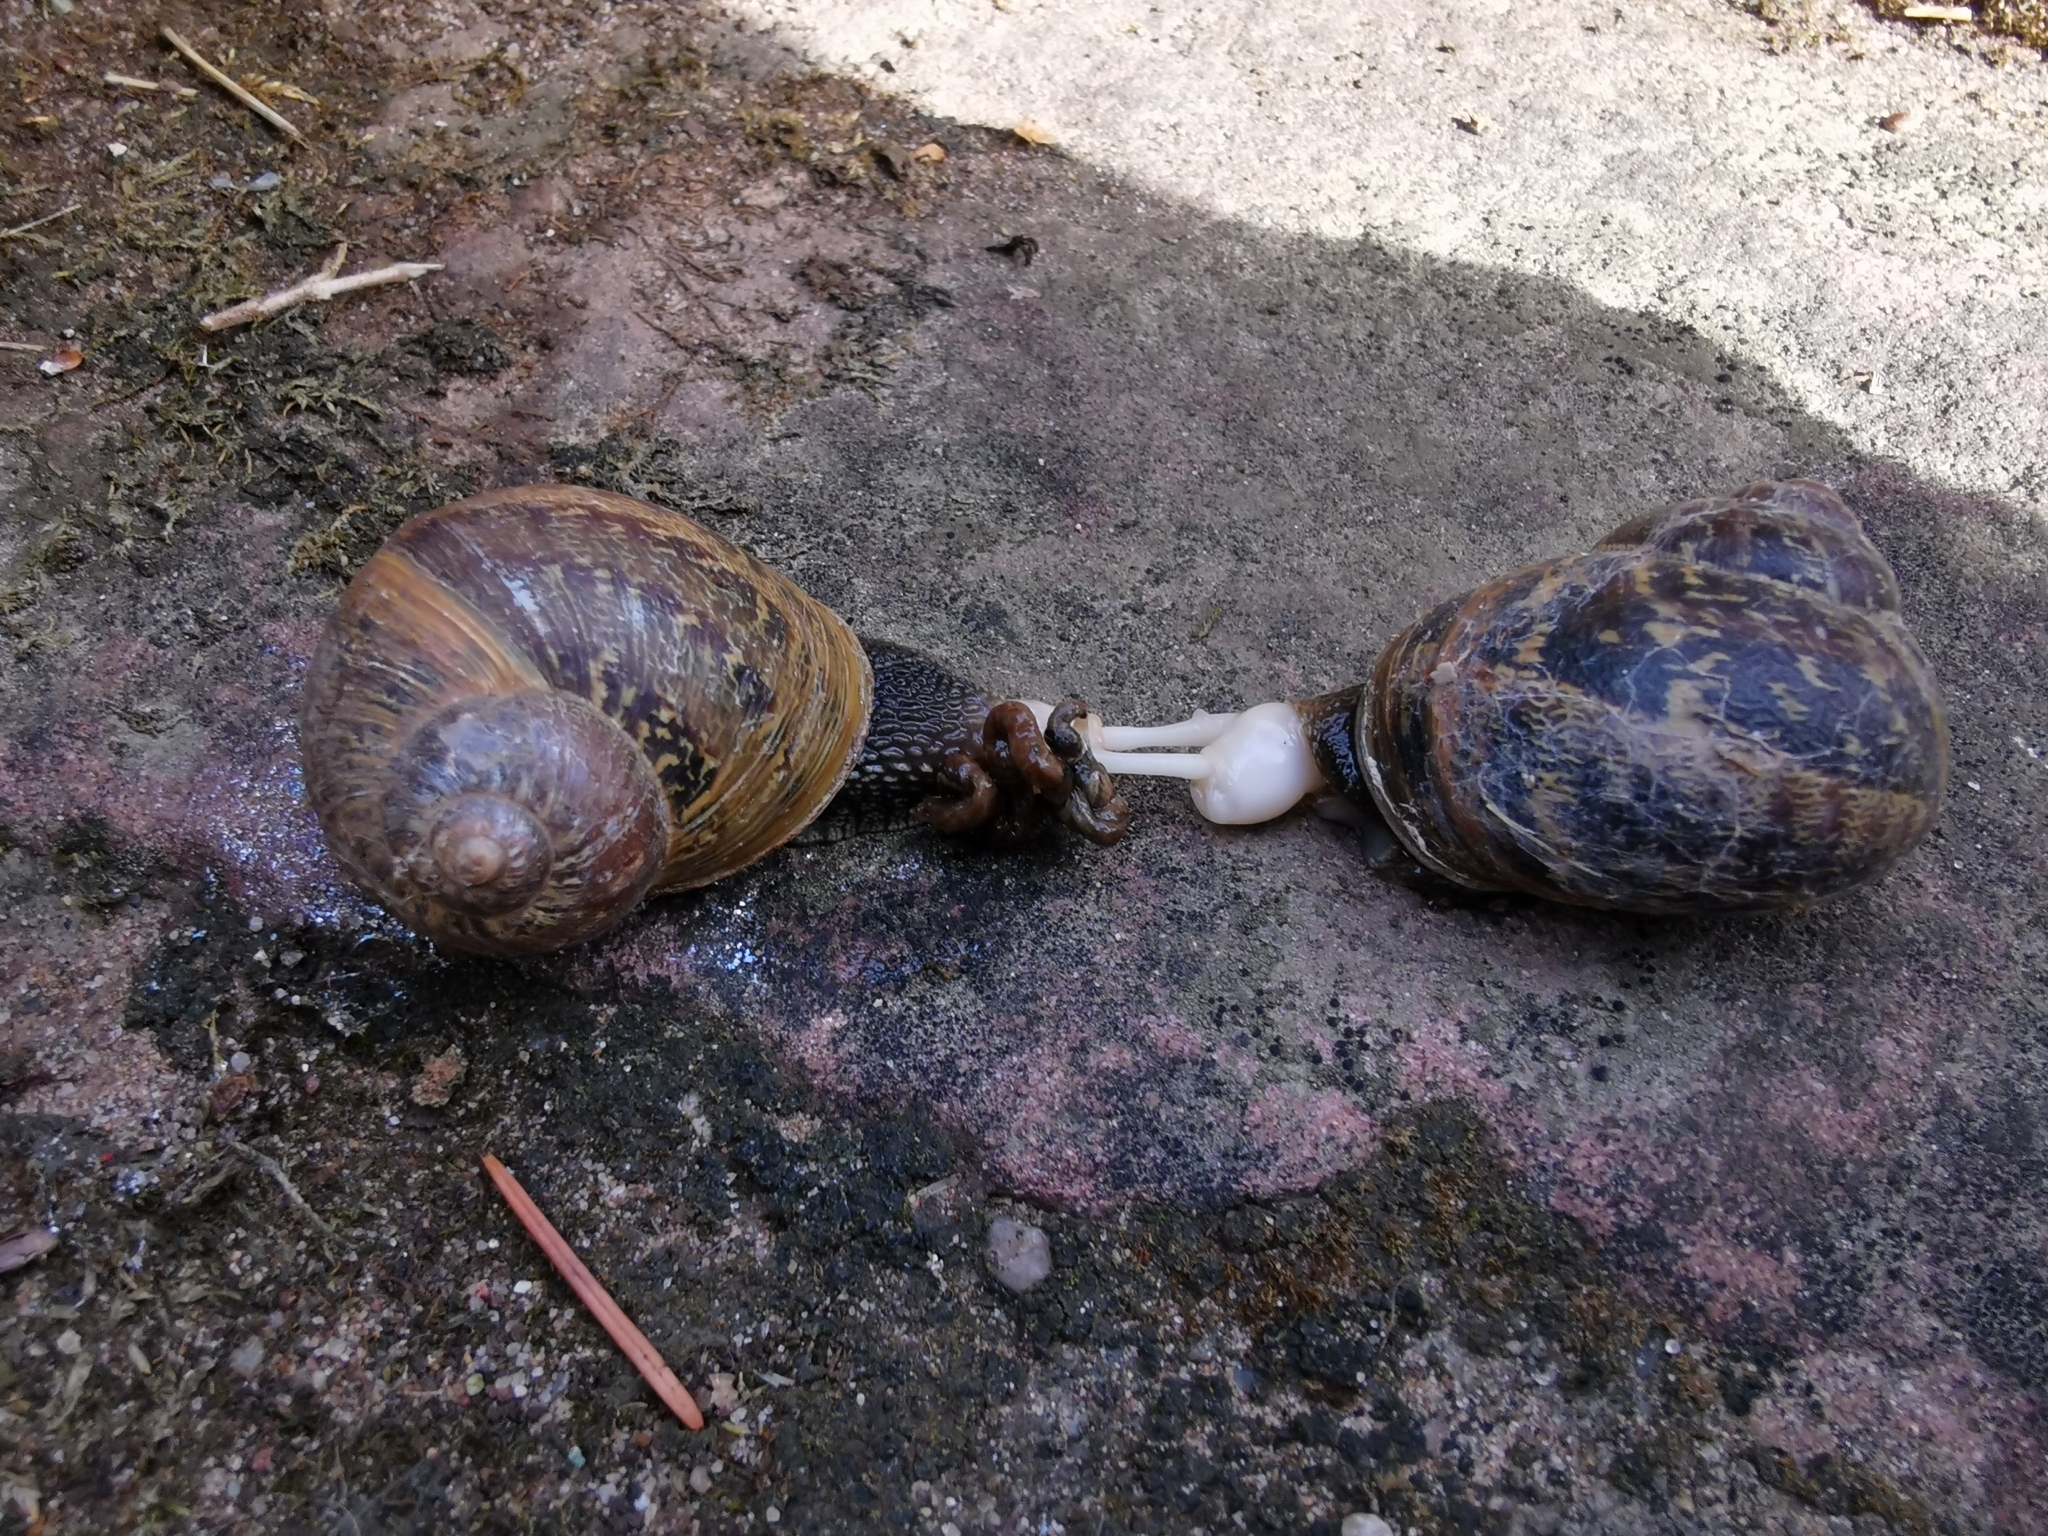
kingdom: Animalia
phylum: Mollusca
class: Gastropoda
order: Stylommatophora
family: Helicidae
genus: Cornu
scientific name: Cornu aspersum
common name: Brown garden snail
